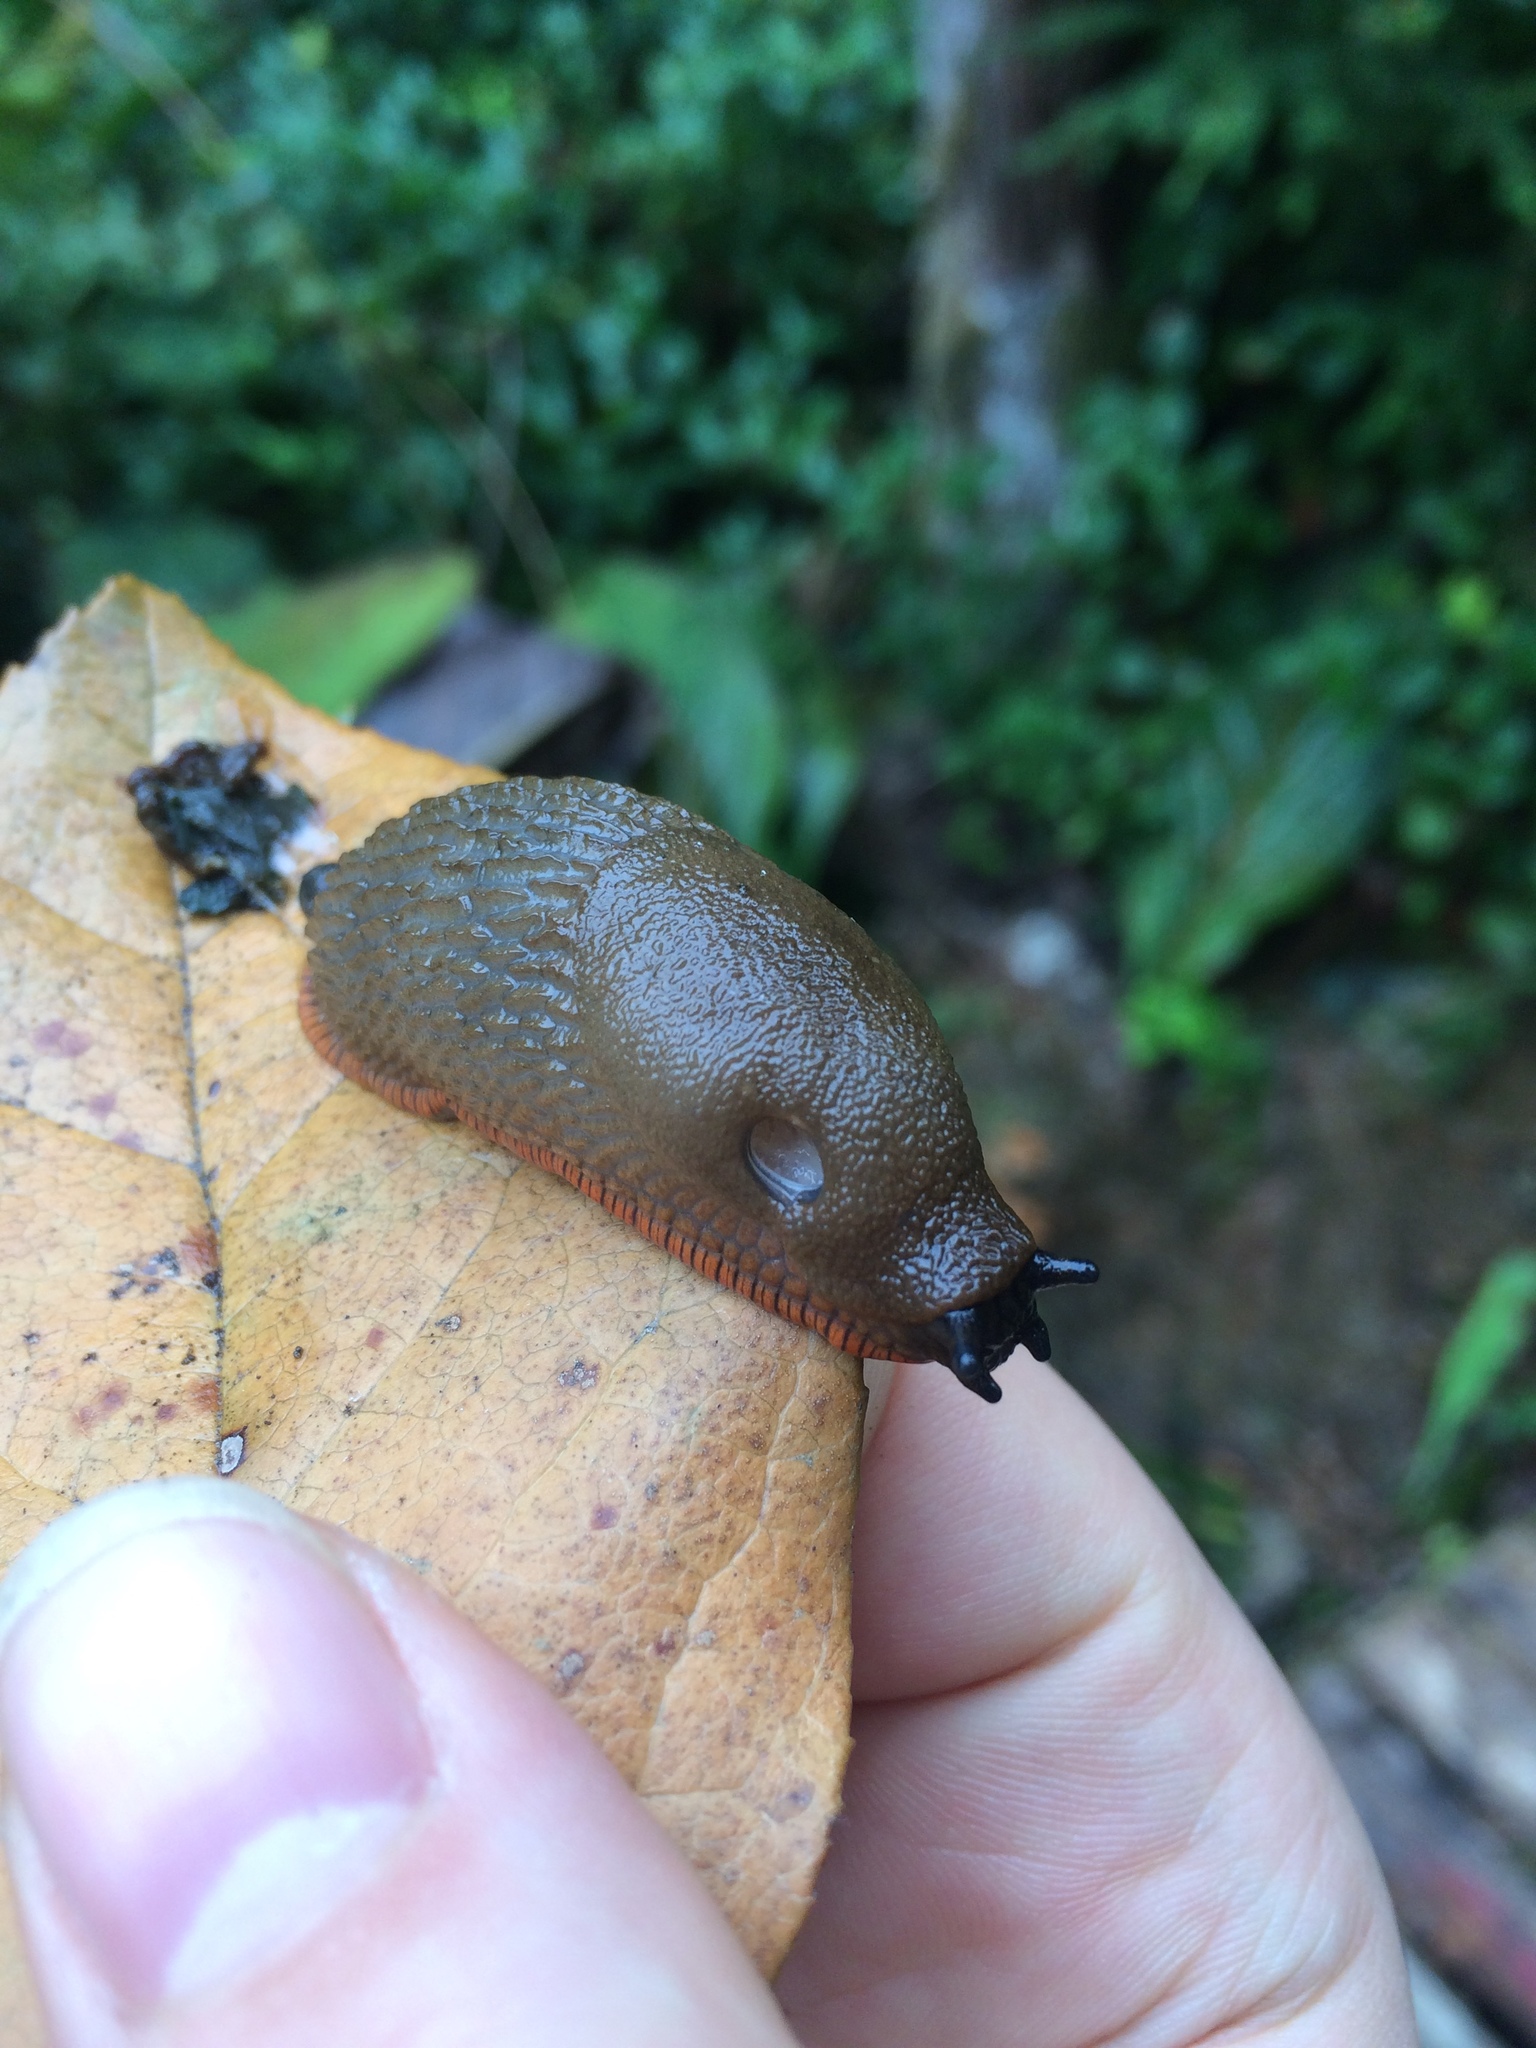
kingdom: Animalia
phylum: Mollusca
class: Gastropoda
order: Stylommatophora
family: Arionidae
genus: Arion
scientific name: Arion rufus
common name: Chocolate arion
